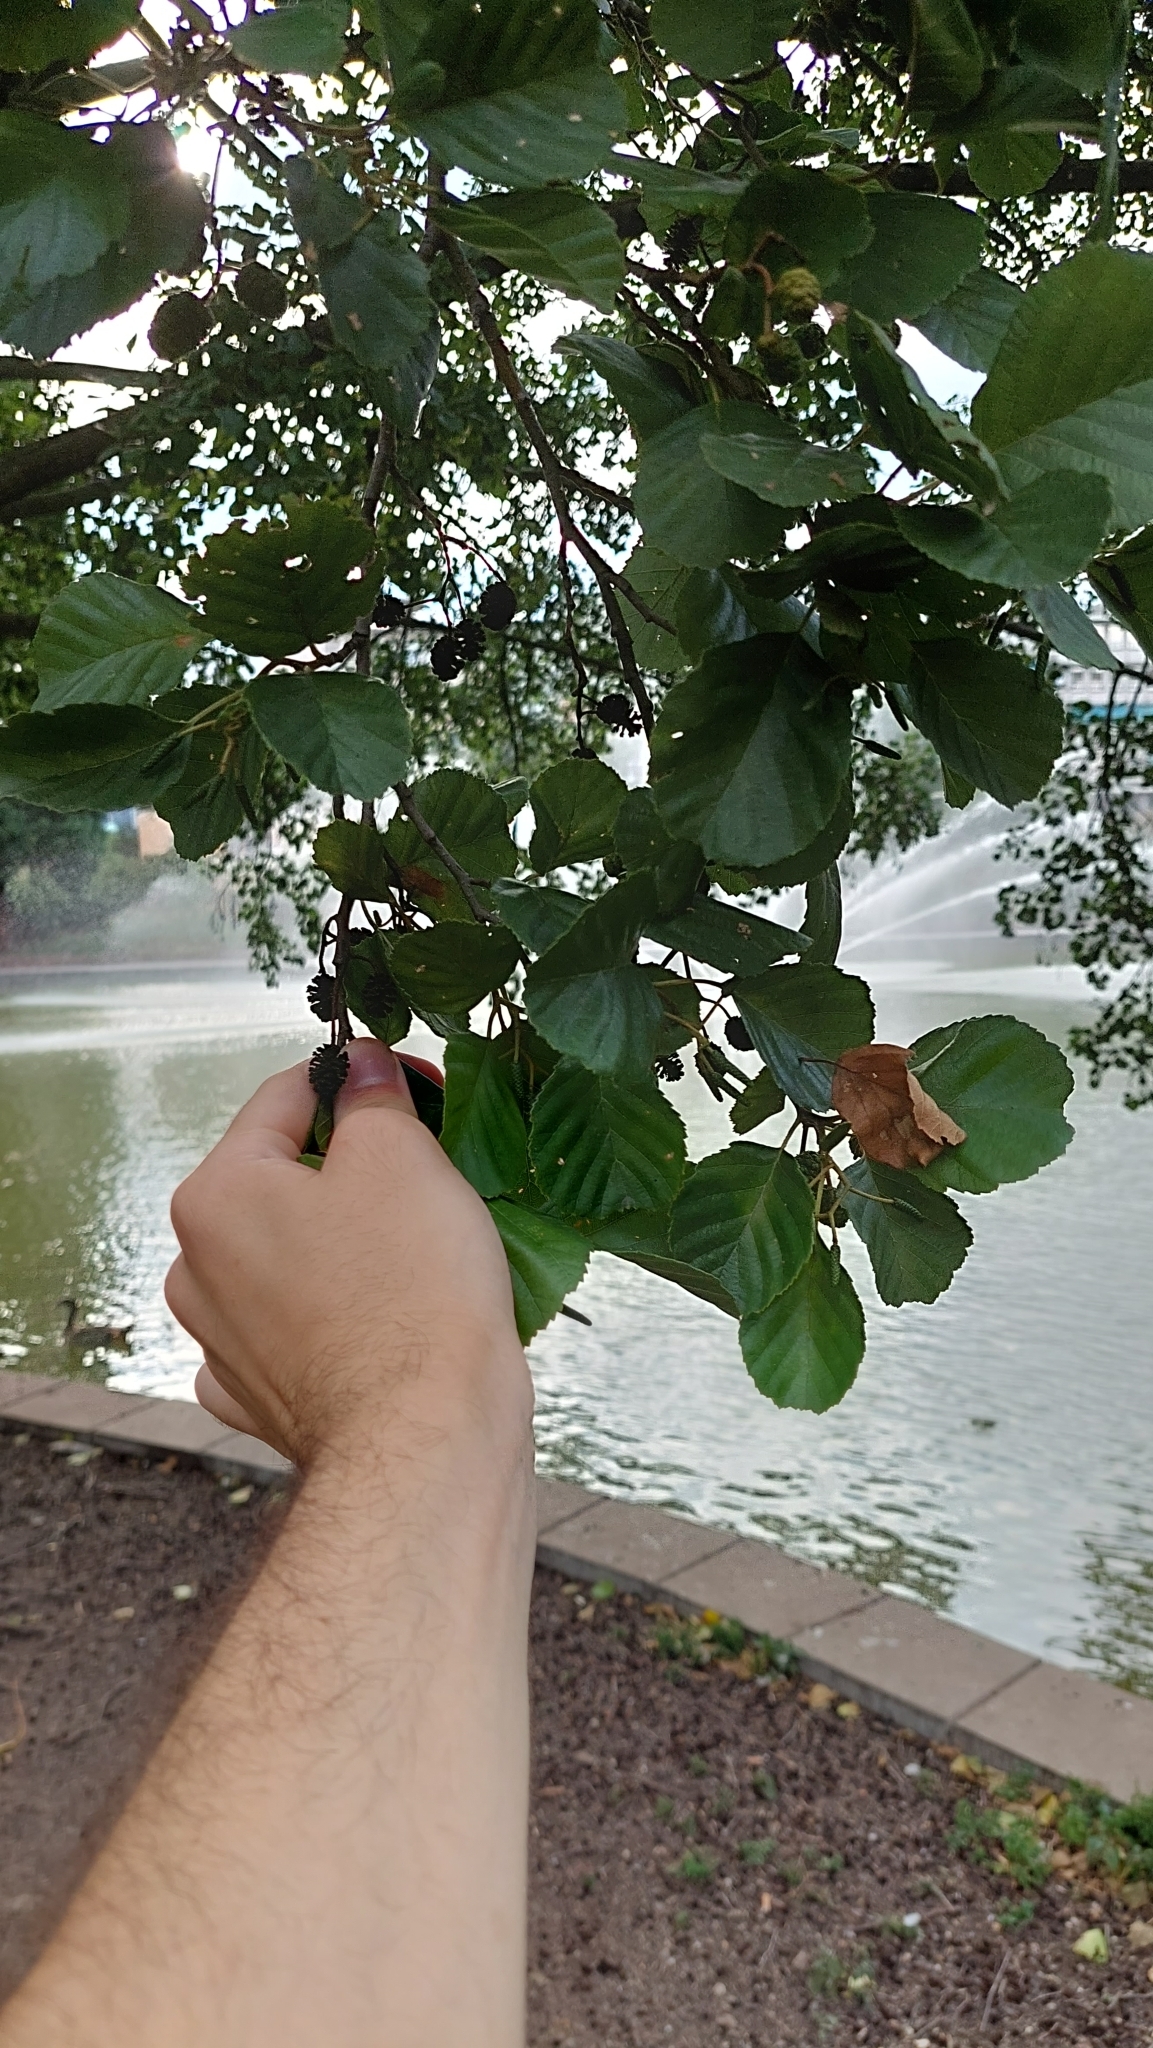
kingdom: Plantae
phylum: Tracheophyta
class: Magnoliopsida
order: Fagales
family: Betulaceae
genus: Alnus
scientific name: Alnus glutinosa
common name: Black alder
